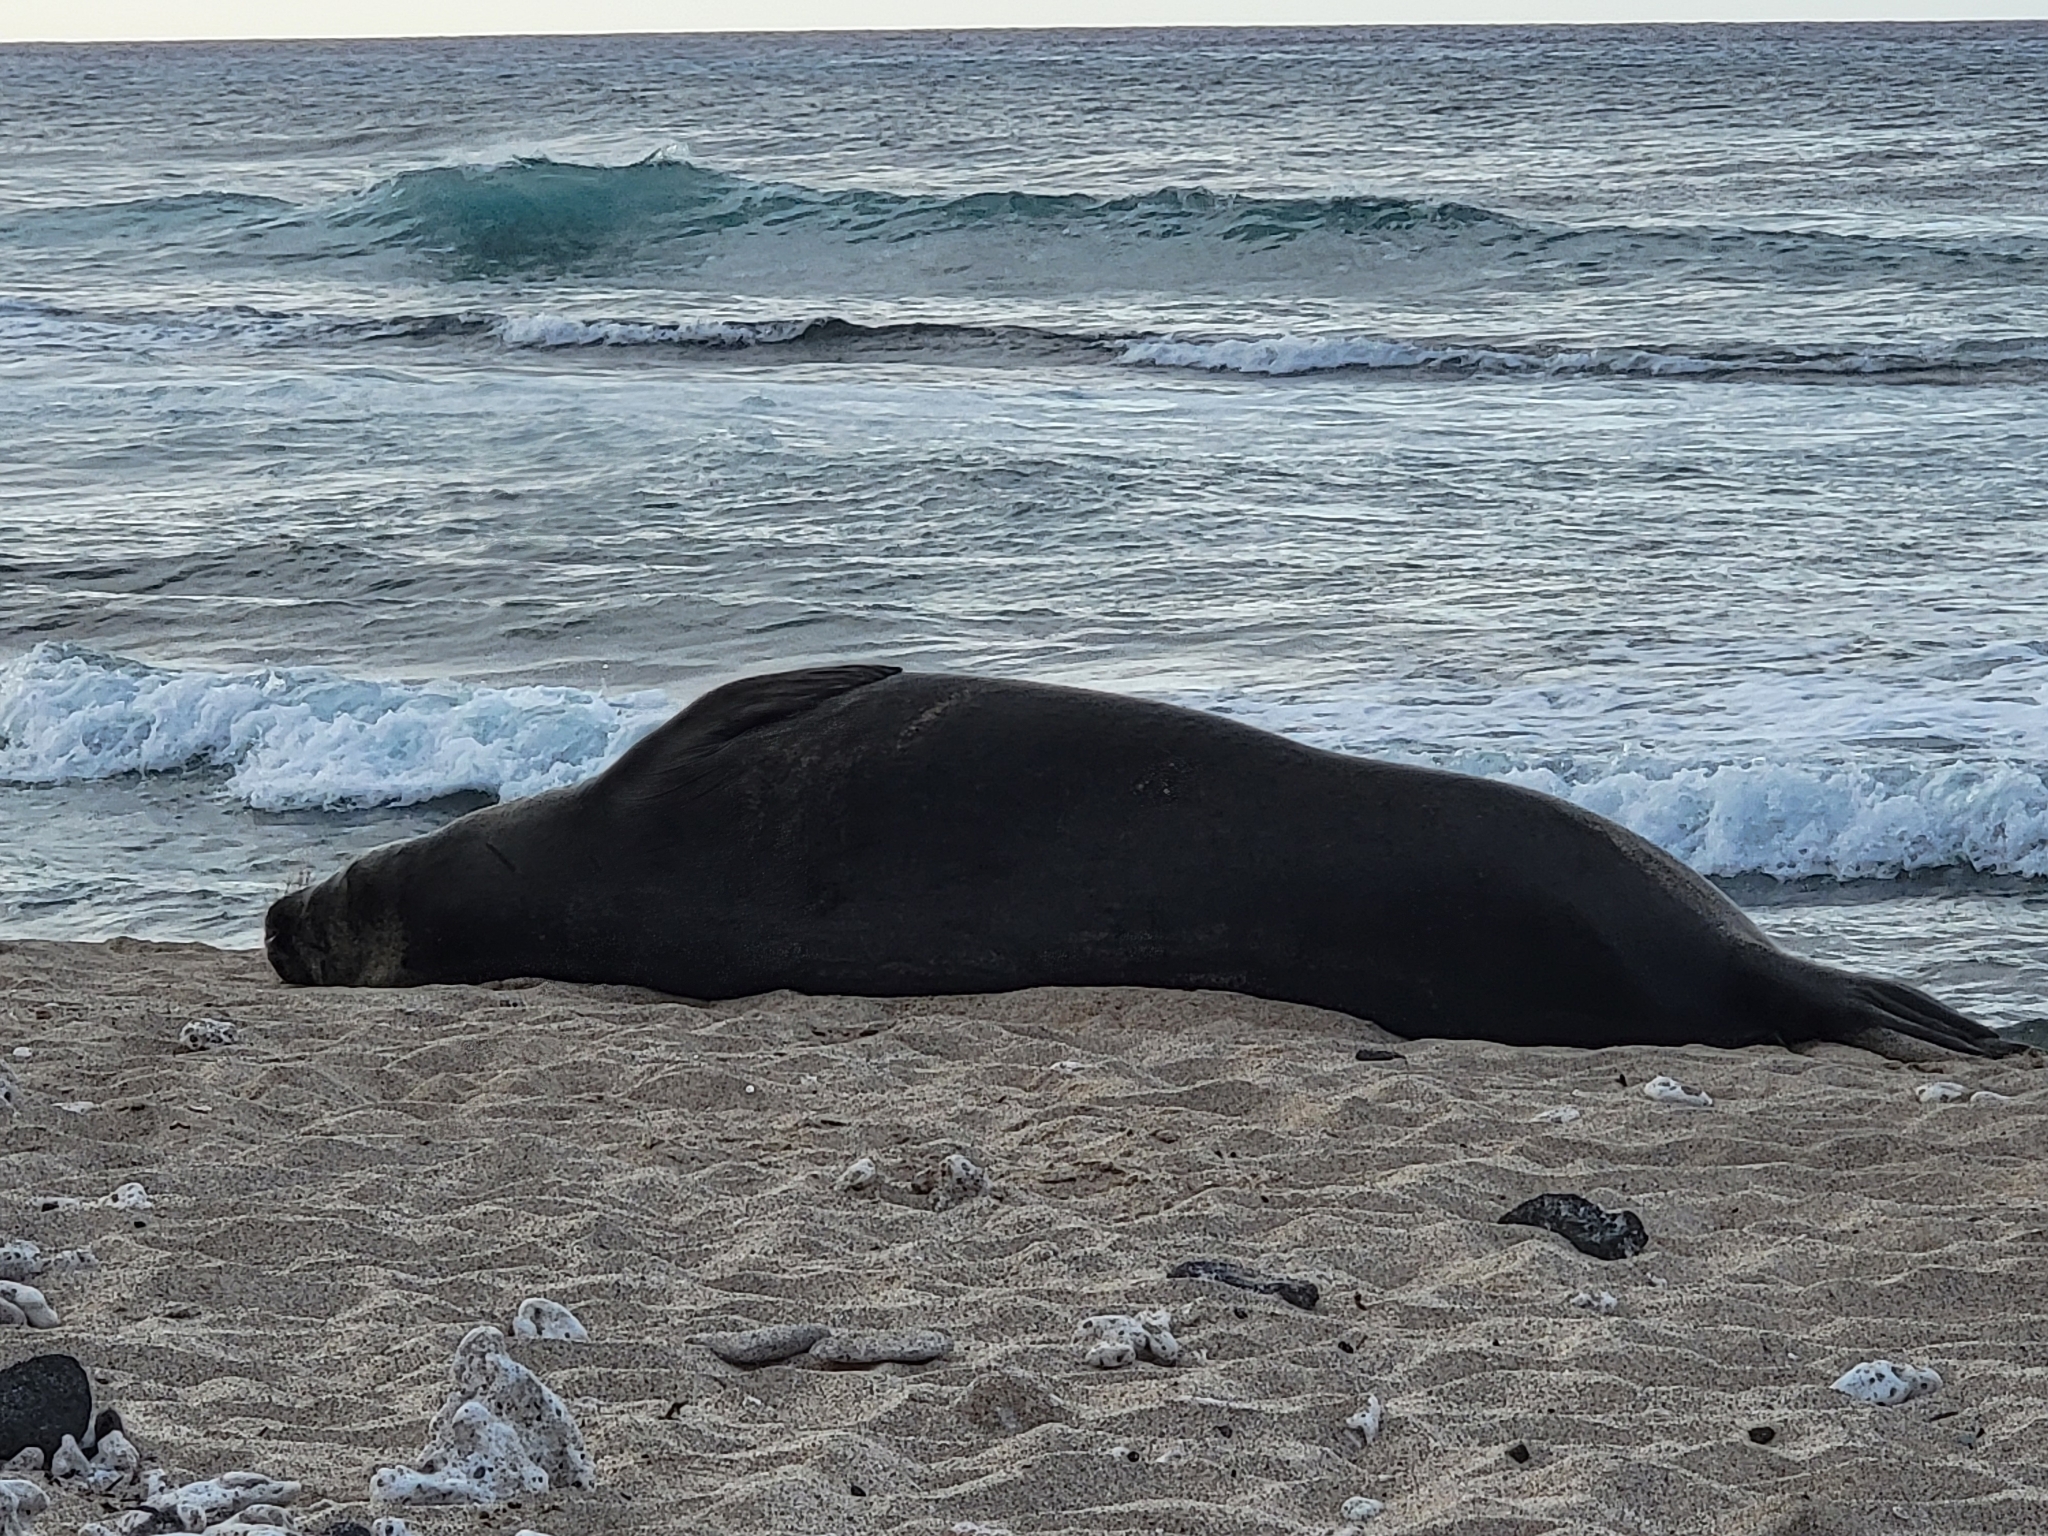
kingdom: Animalia
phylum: Chordata
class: Mammalia
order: Carnivora
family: Phocidae
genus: Neomonachus
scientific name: Neomonachus schauinslandi
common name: Hawaiian monk seal
